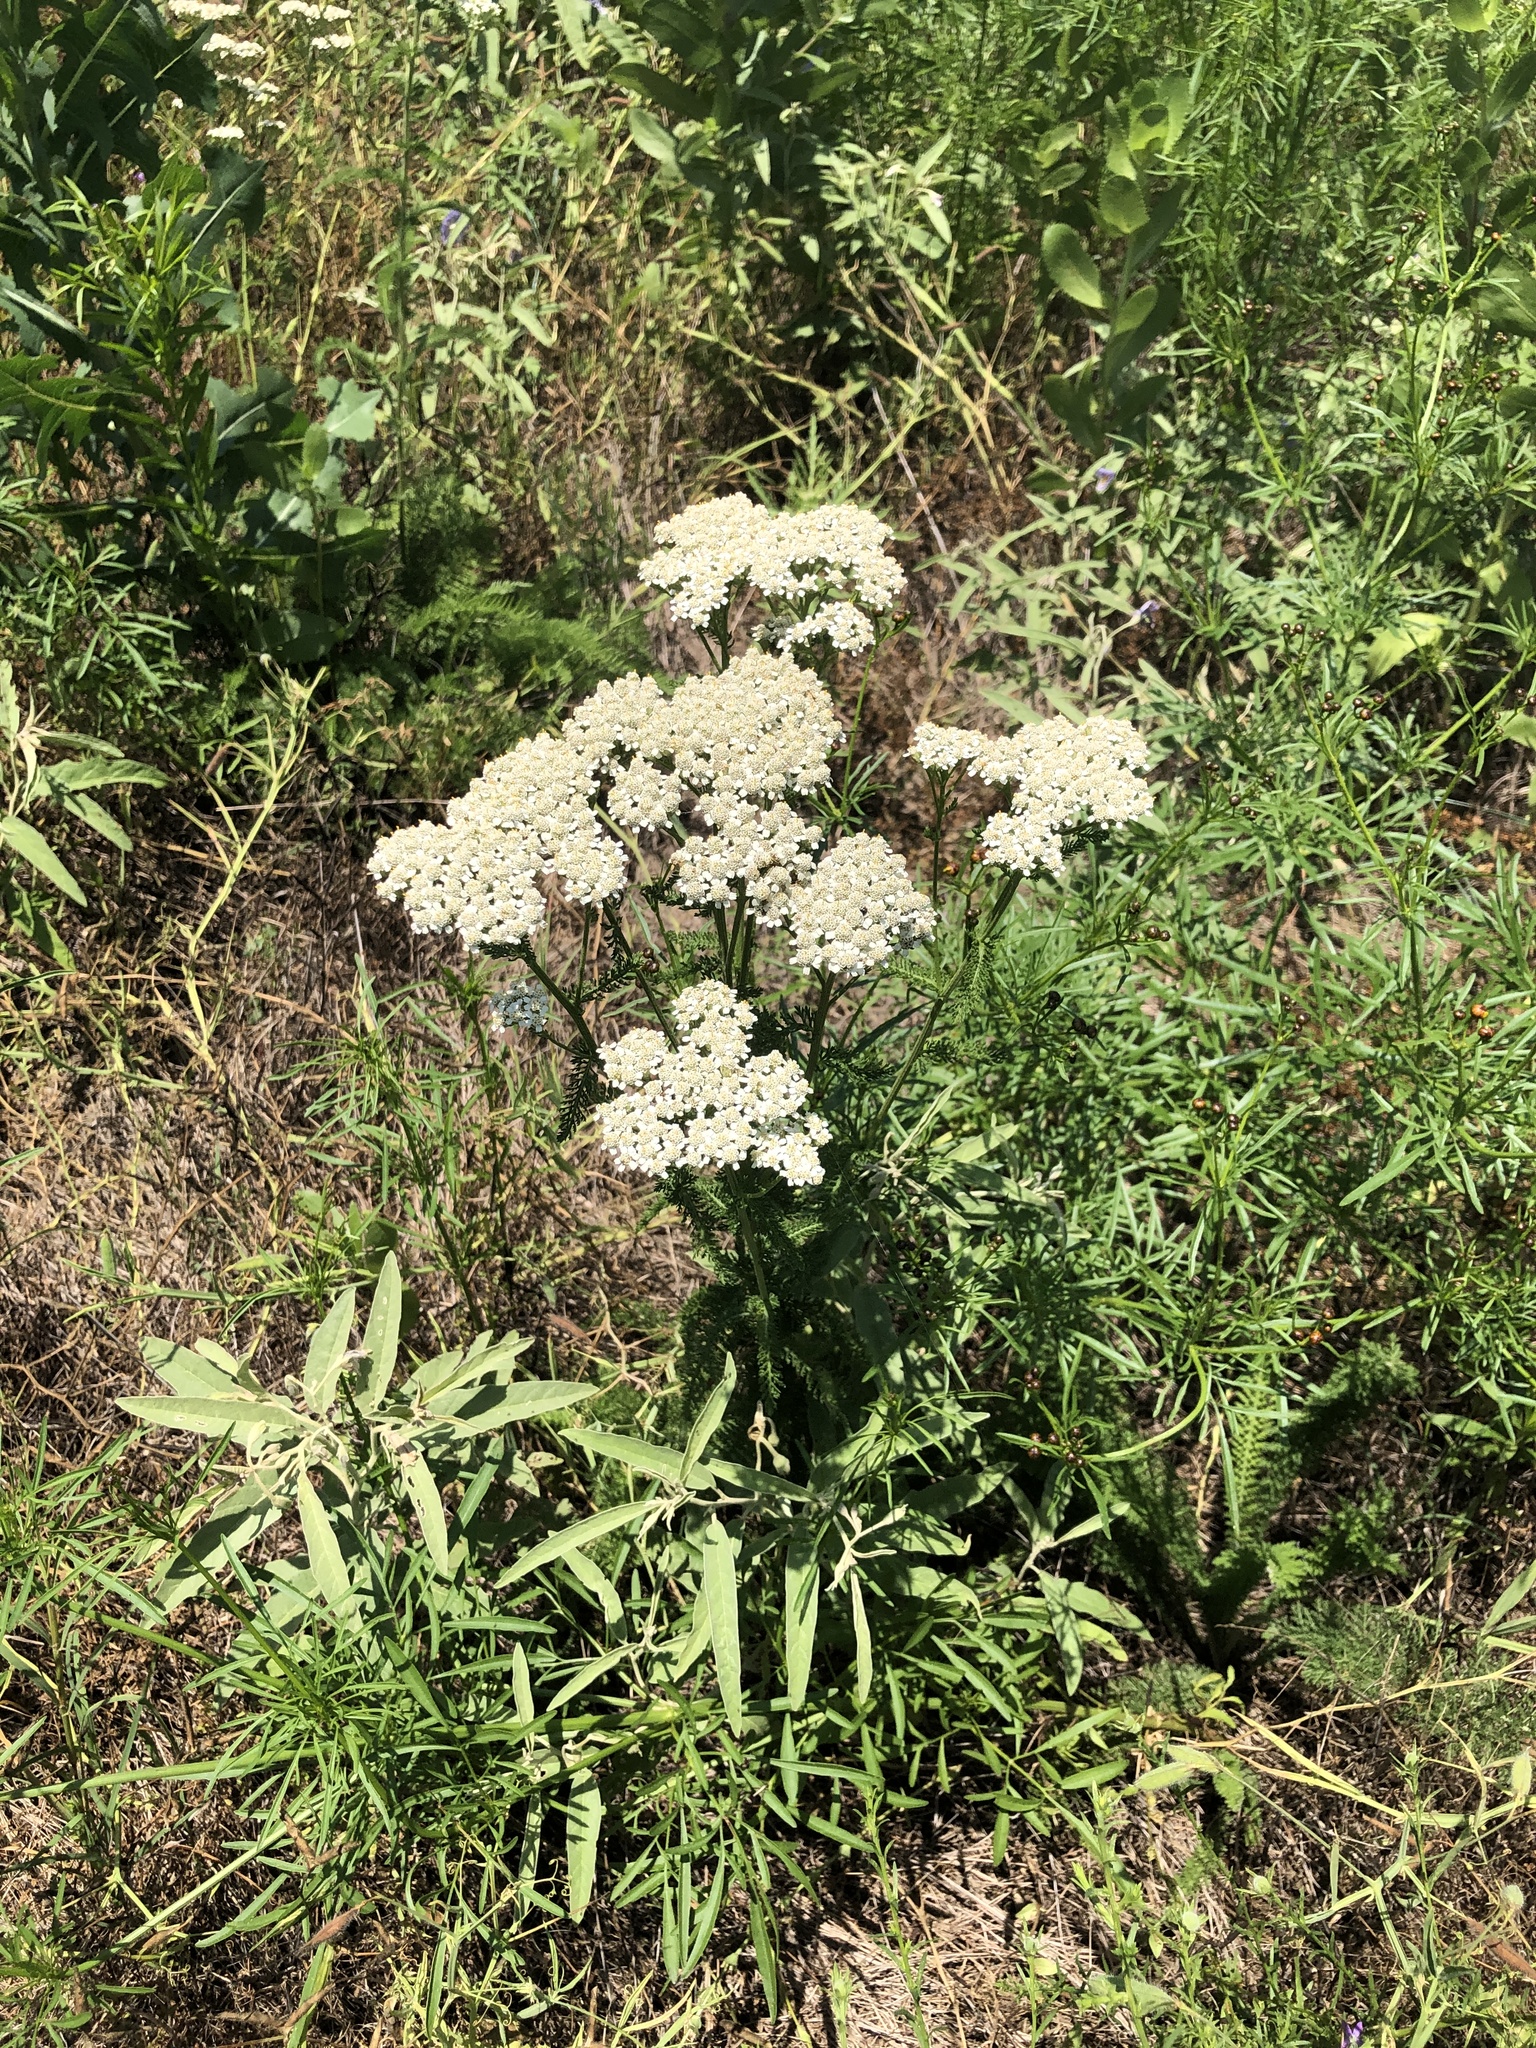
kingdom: Plantae
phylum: Tracheophyta
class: Magnoliopsida
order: Asterales
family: Asteraceae
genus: Achillea
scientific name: Achillea millefolium
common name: Yarrow
